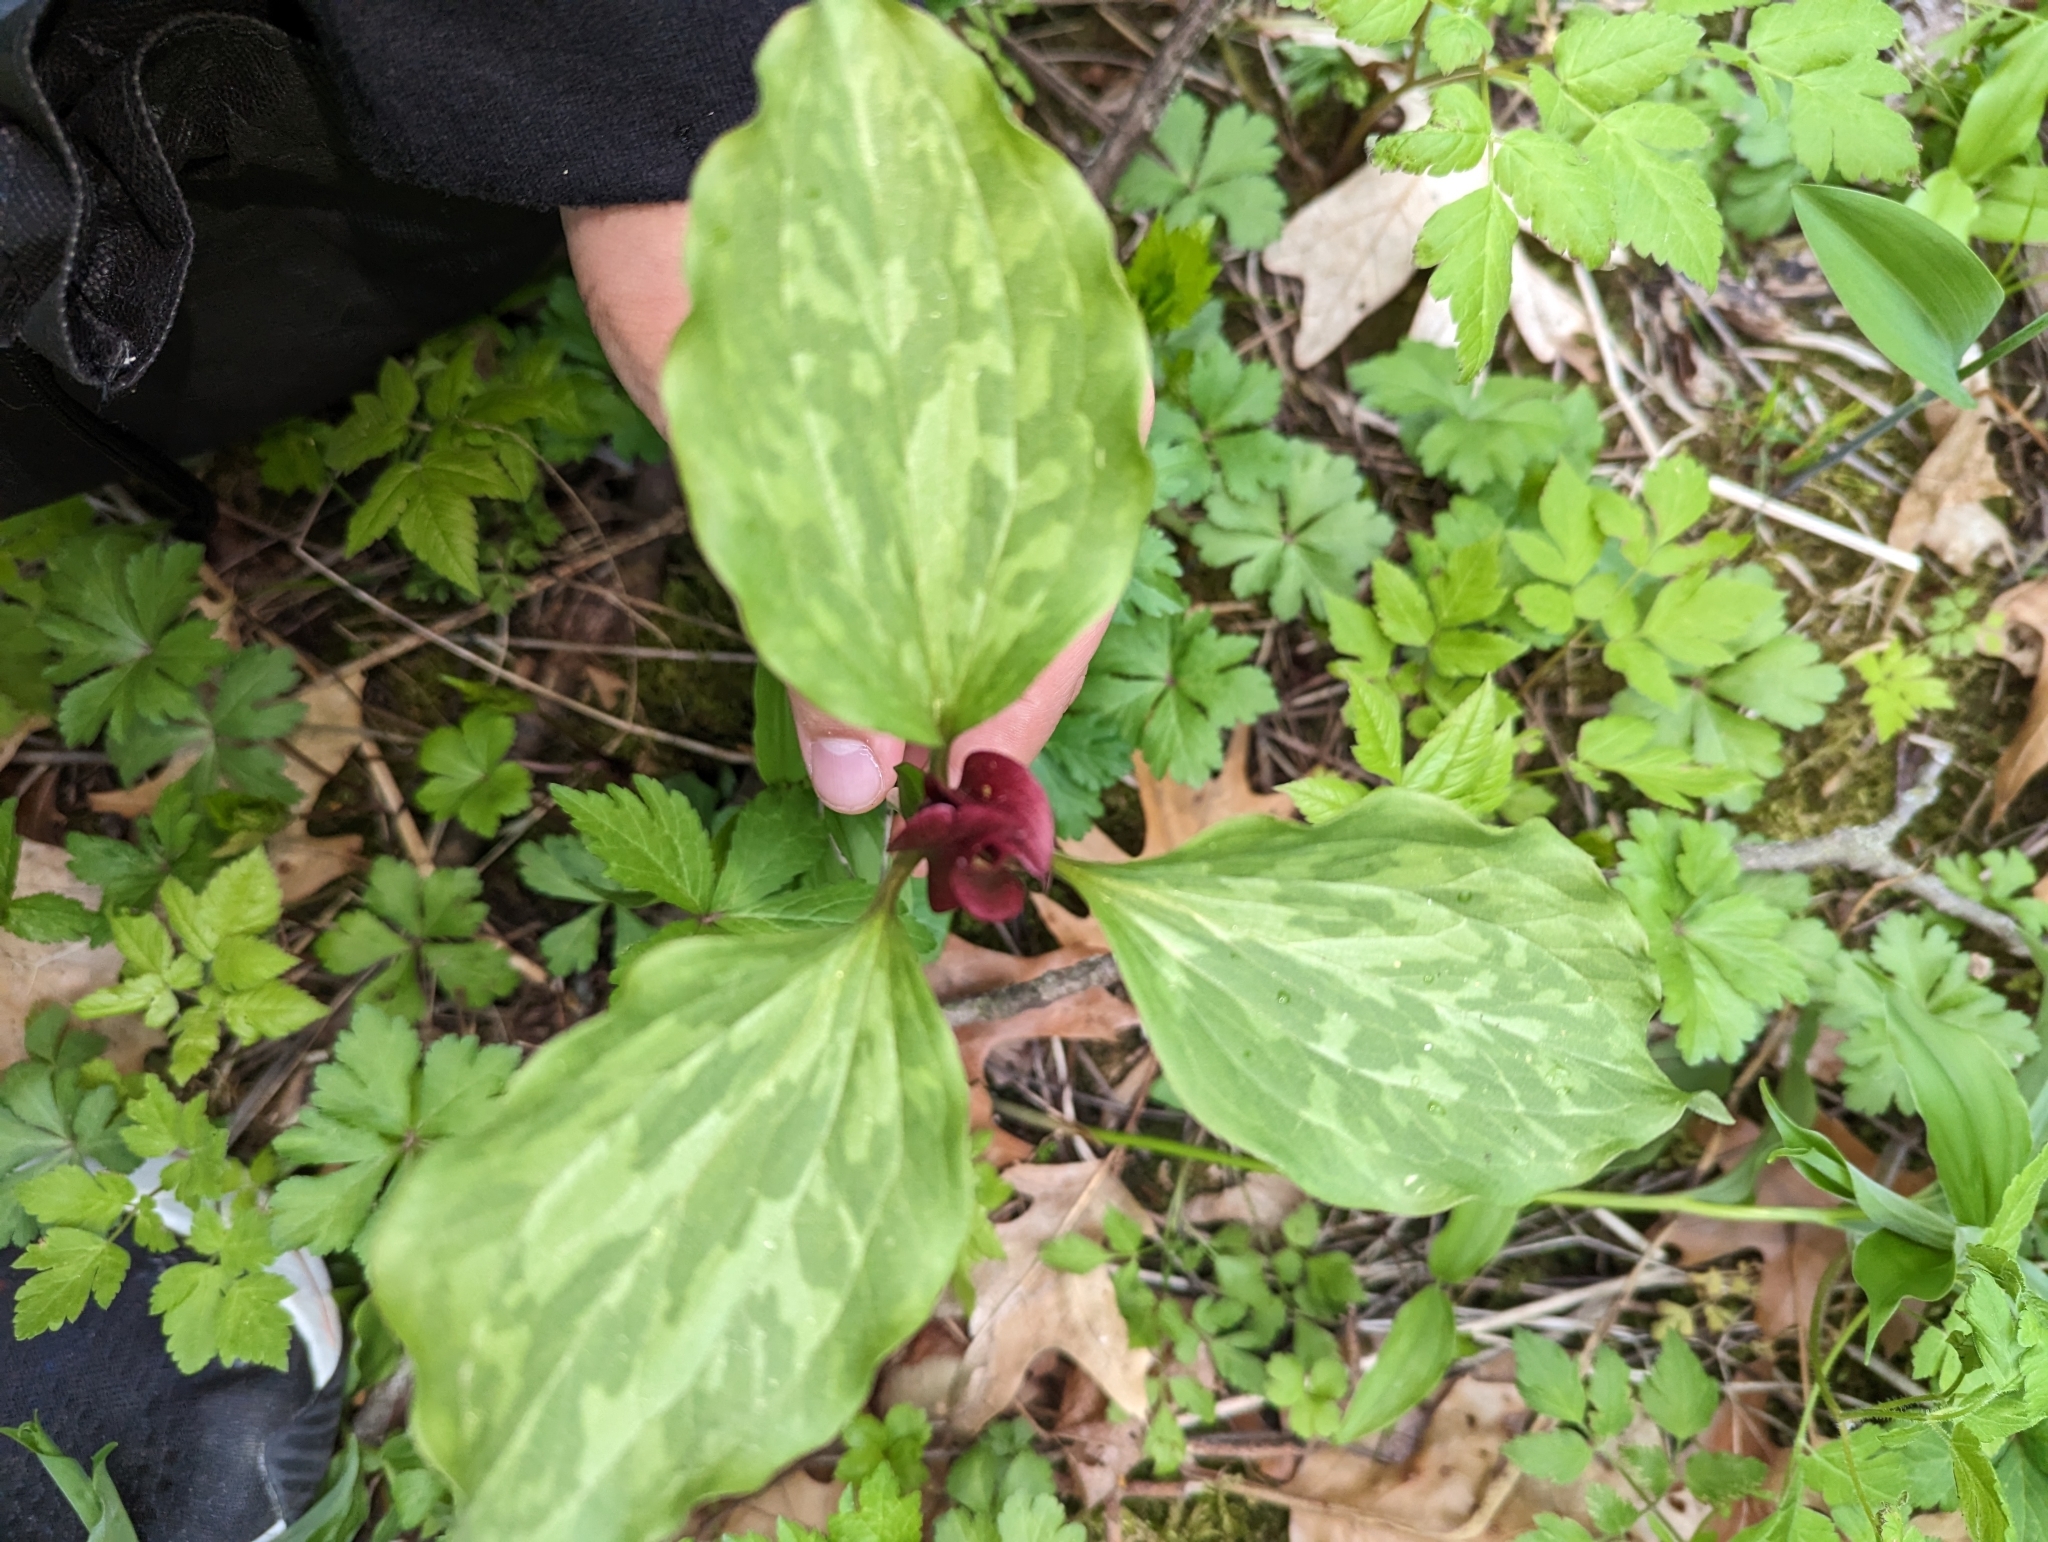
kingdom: Plantae
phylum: Tracheophyta
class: Liliopsida
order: Liliales
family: Melanthiaceae
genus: Trillium
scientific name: Trillium recurvatum
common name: Bloody butcher
